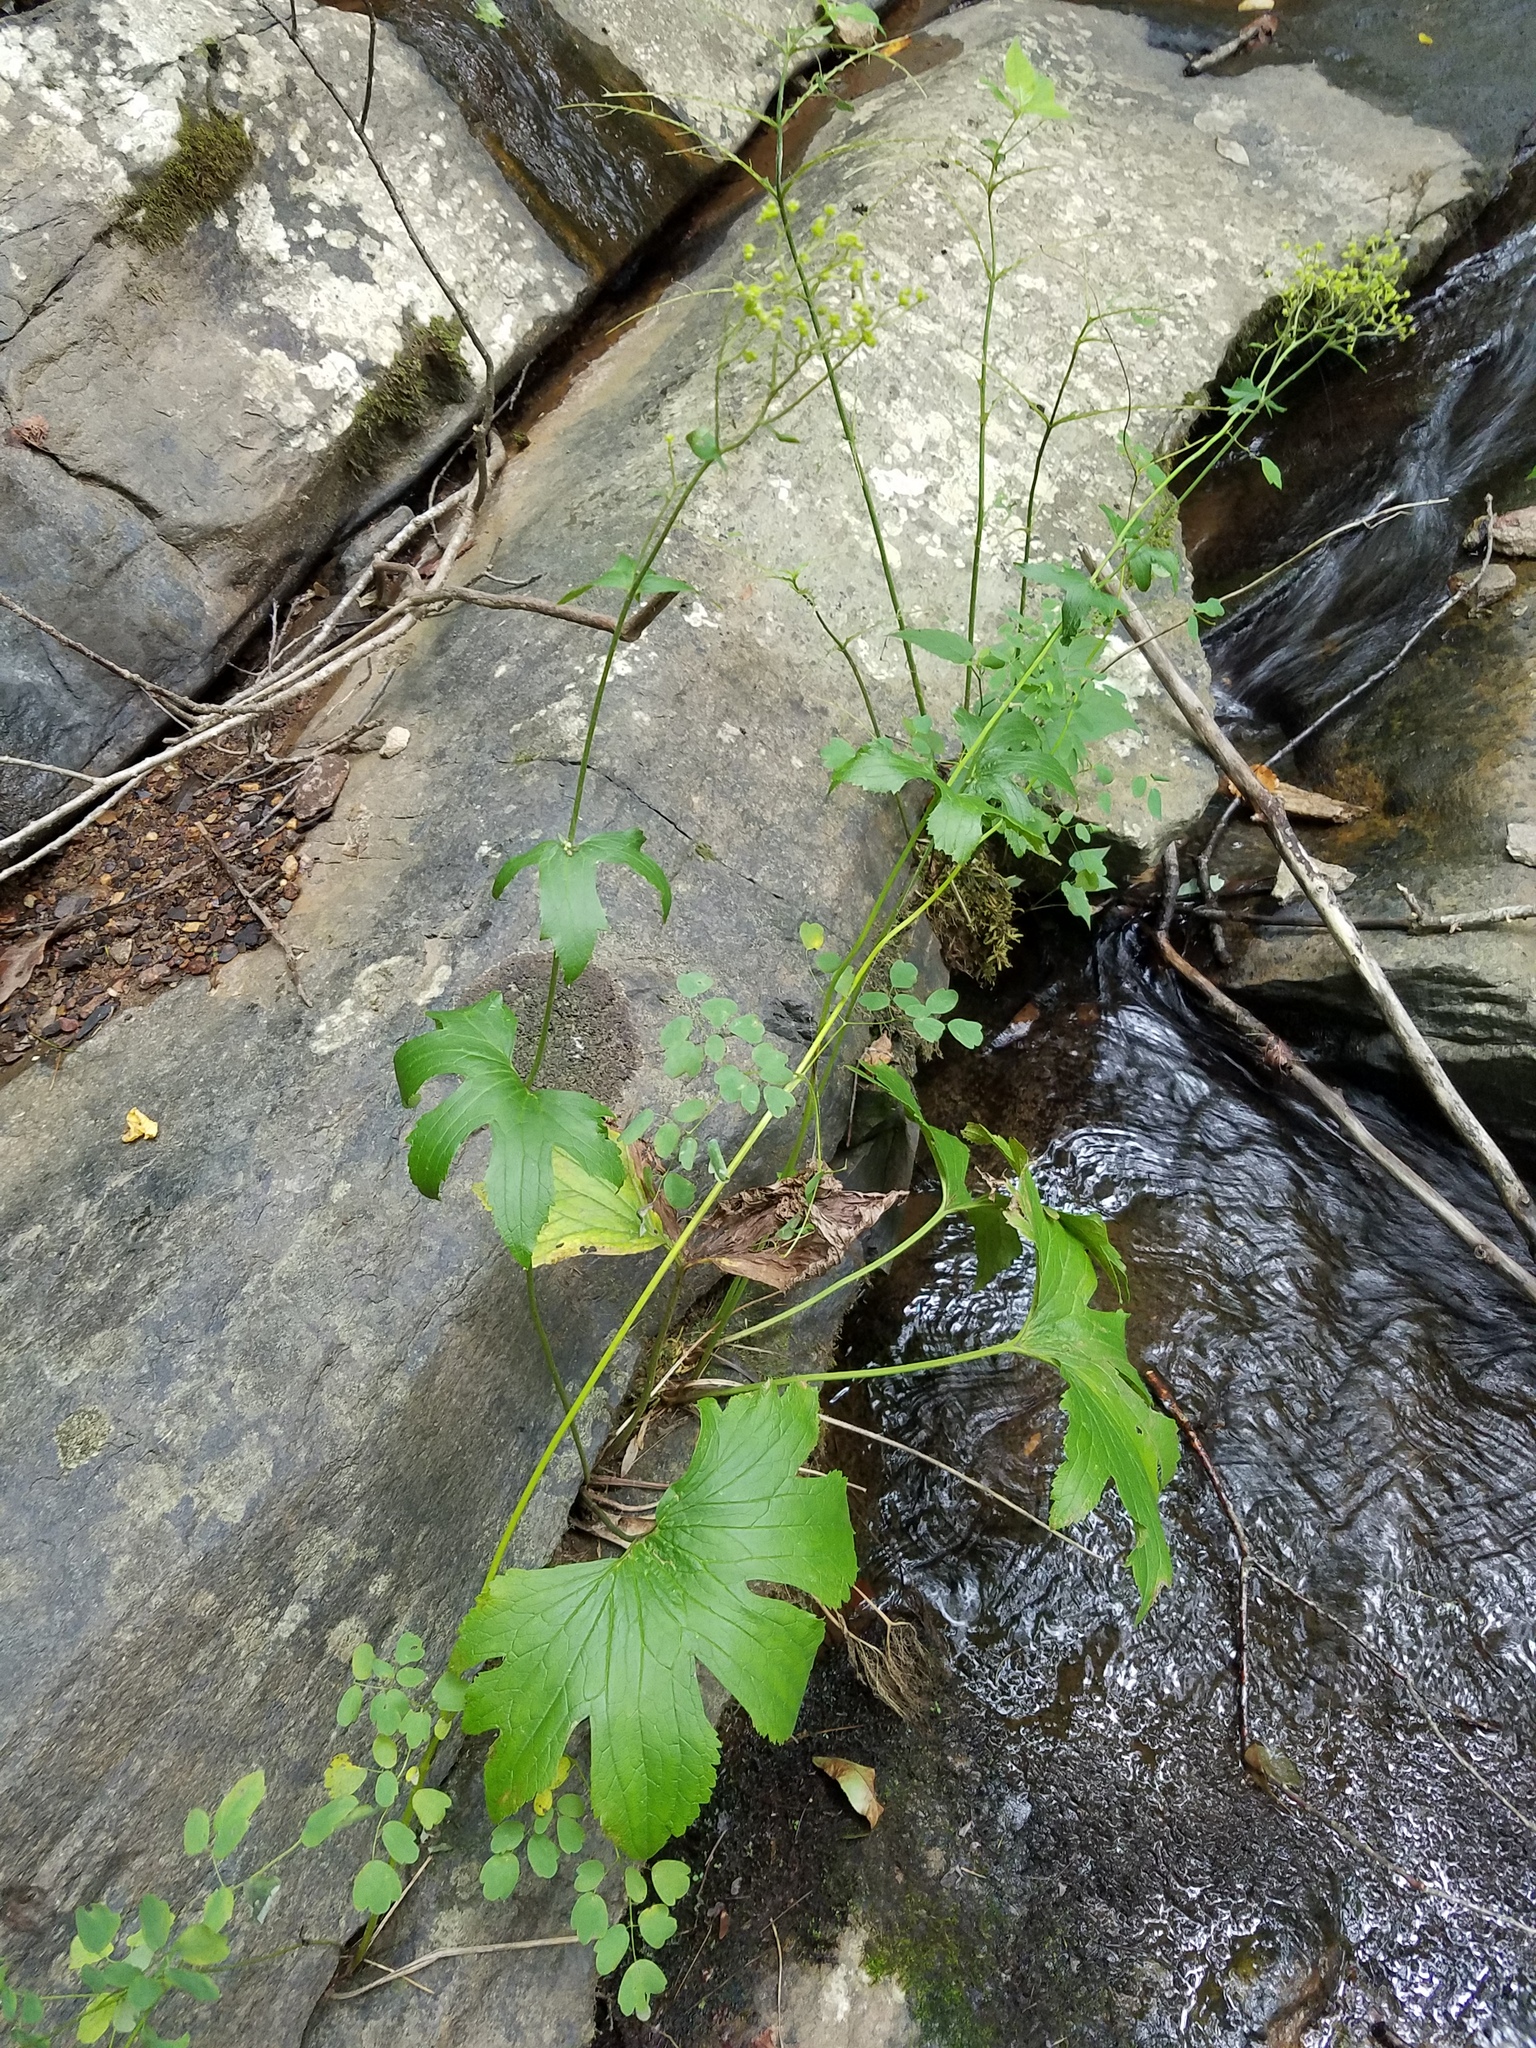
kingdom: Plantae
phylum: Tracheophyta
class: Magnoliopsida
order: Ranunculales
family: Ranunculaceae
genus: Trautvetteria
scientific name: Trautvetteria carolinensis
